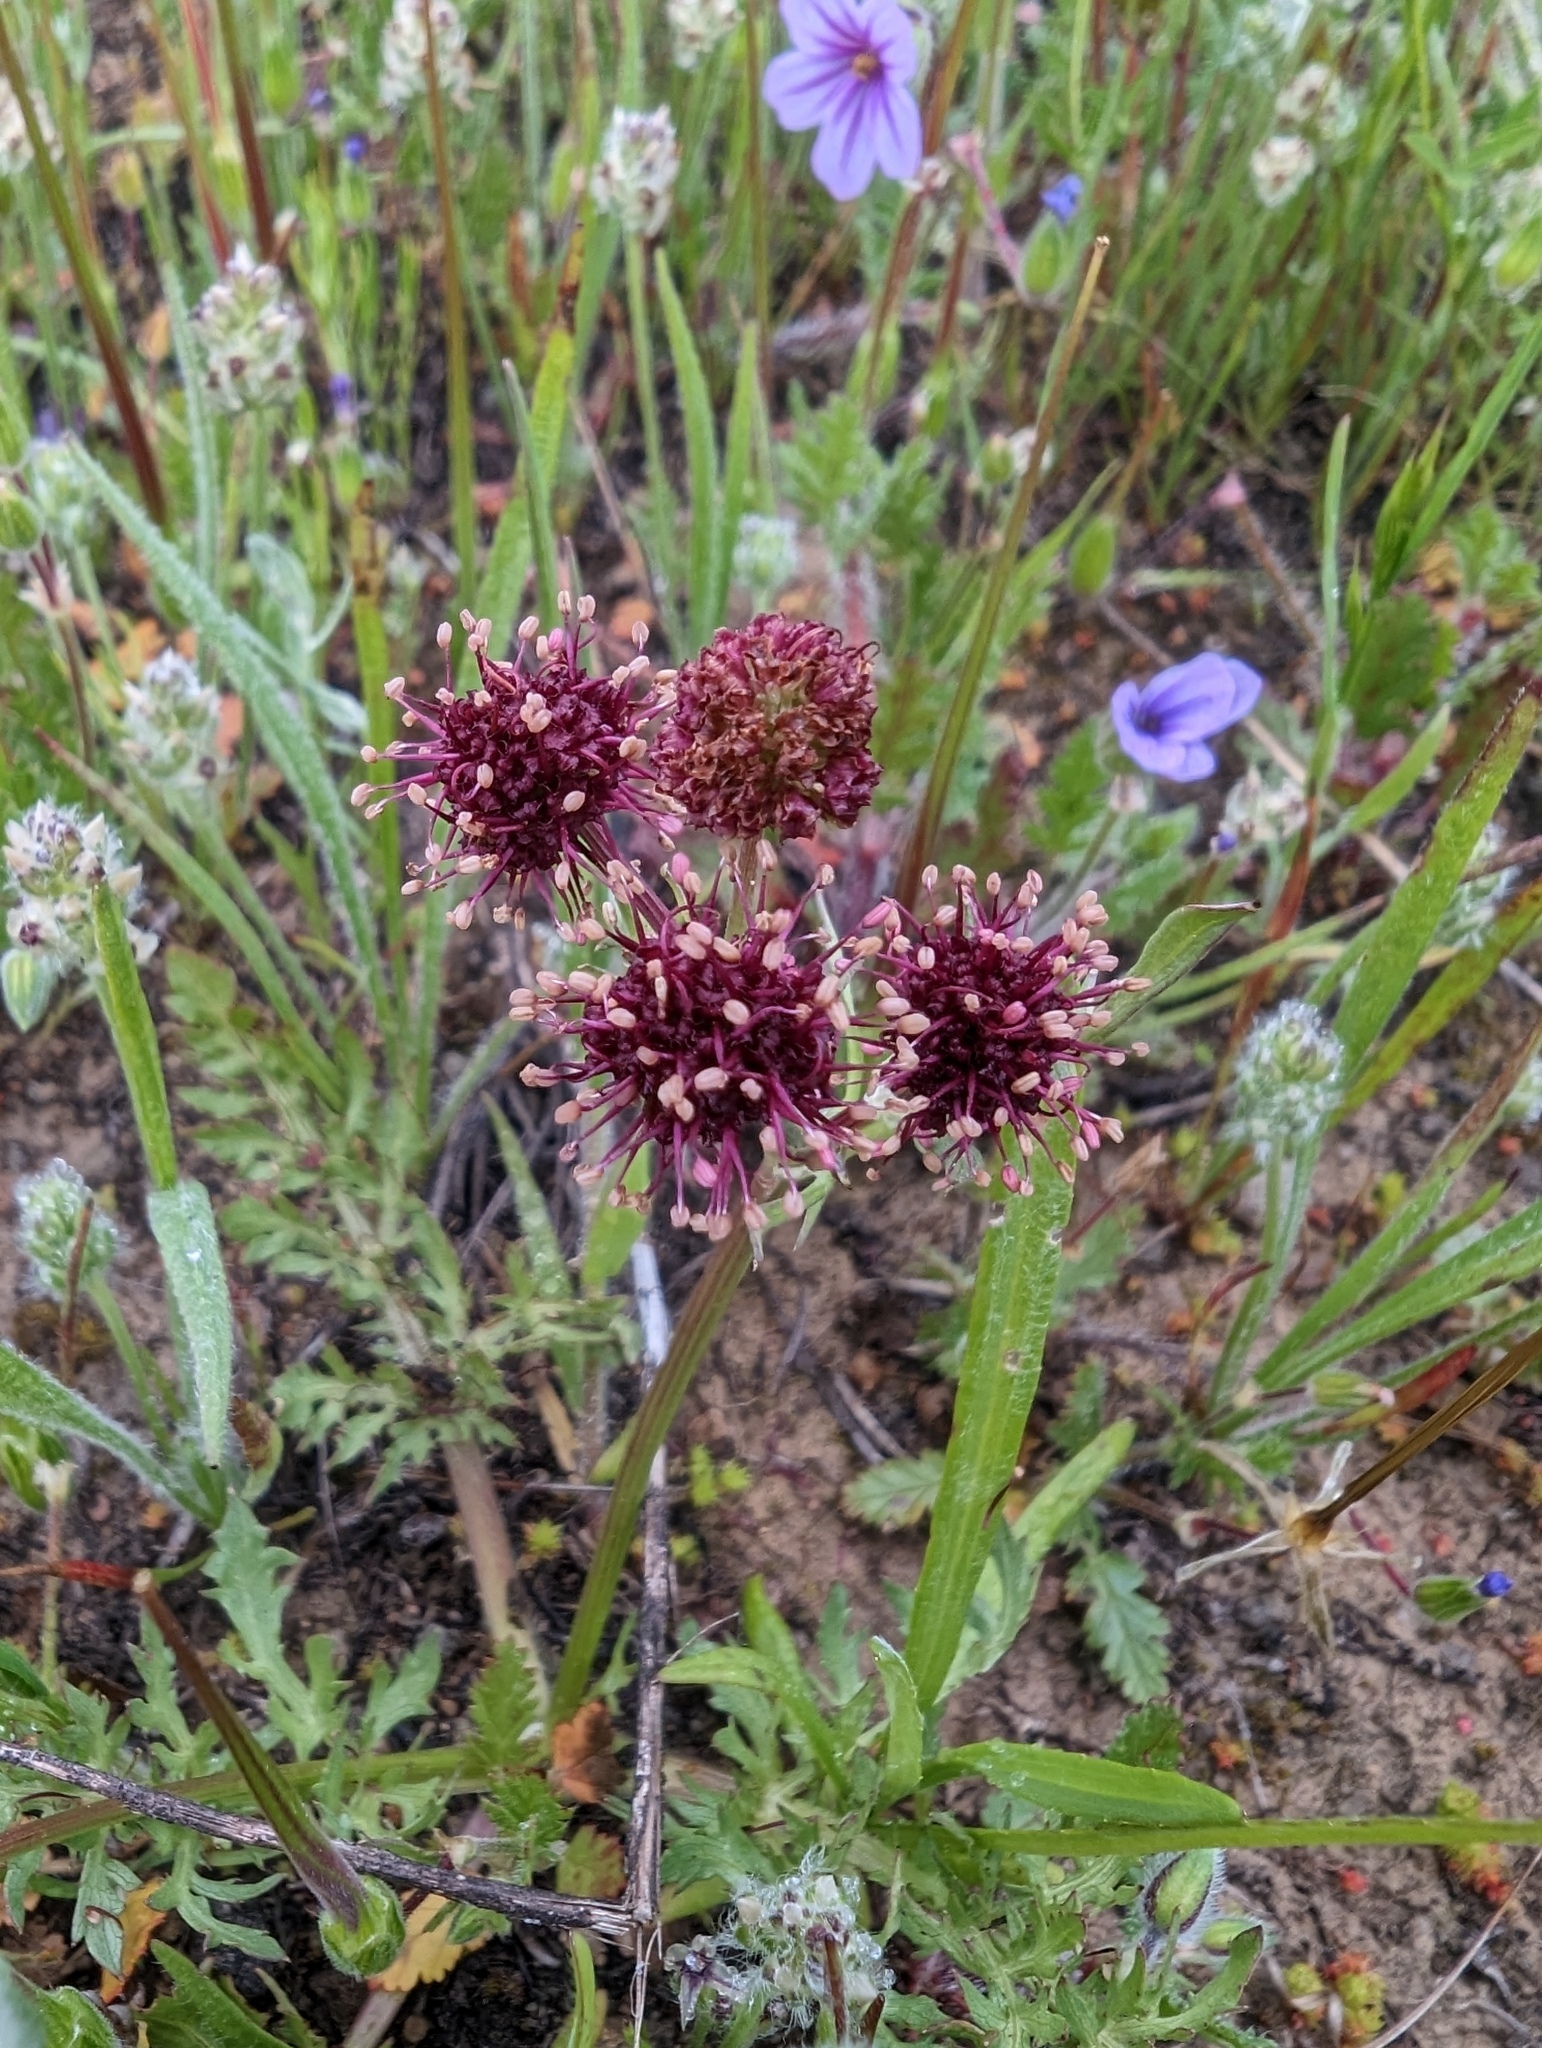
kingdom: Plantae
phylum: Tracheophyta
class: Magnoliopsida
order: Apiales
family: Apiaceae
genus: Sanicula
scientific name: Sanicula bipinnatifida
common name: Shoe-buttons
